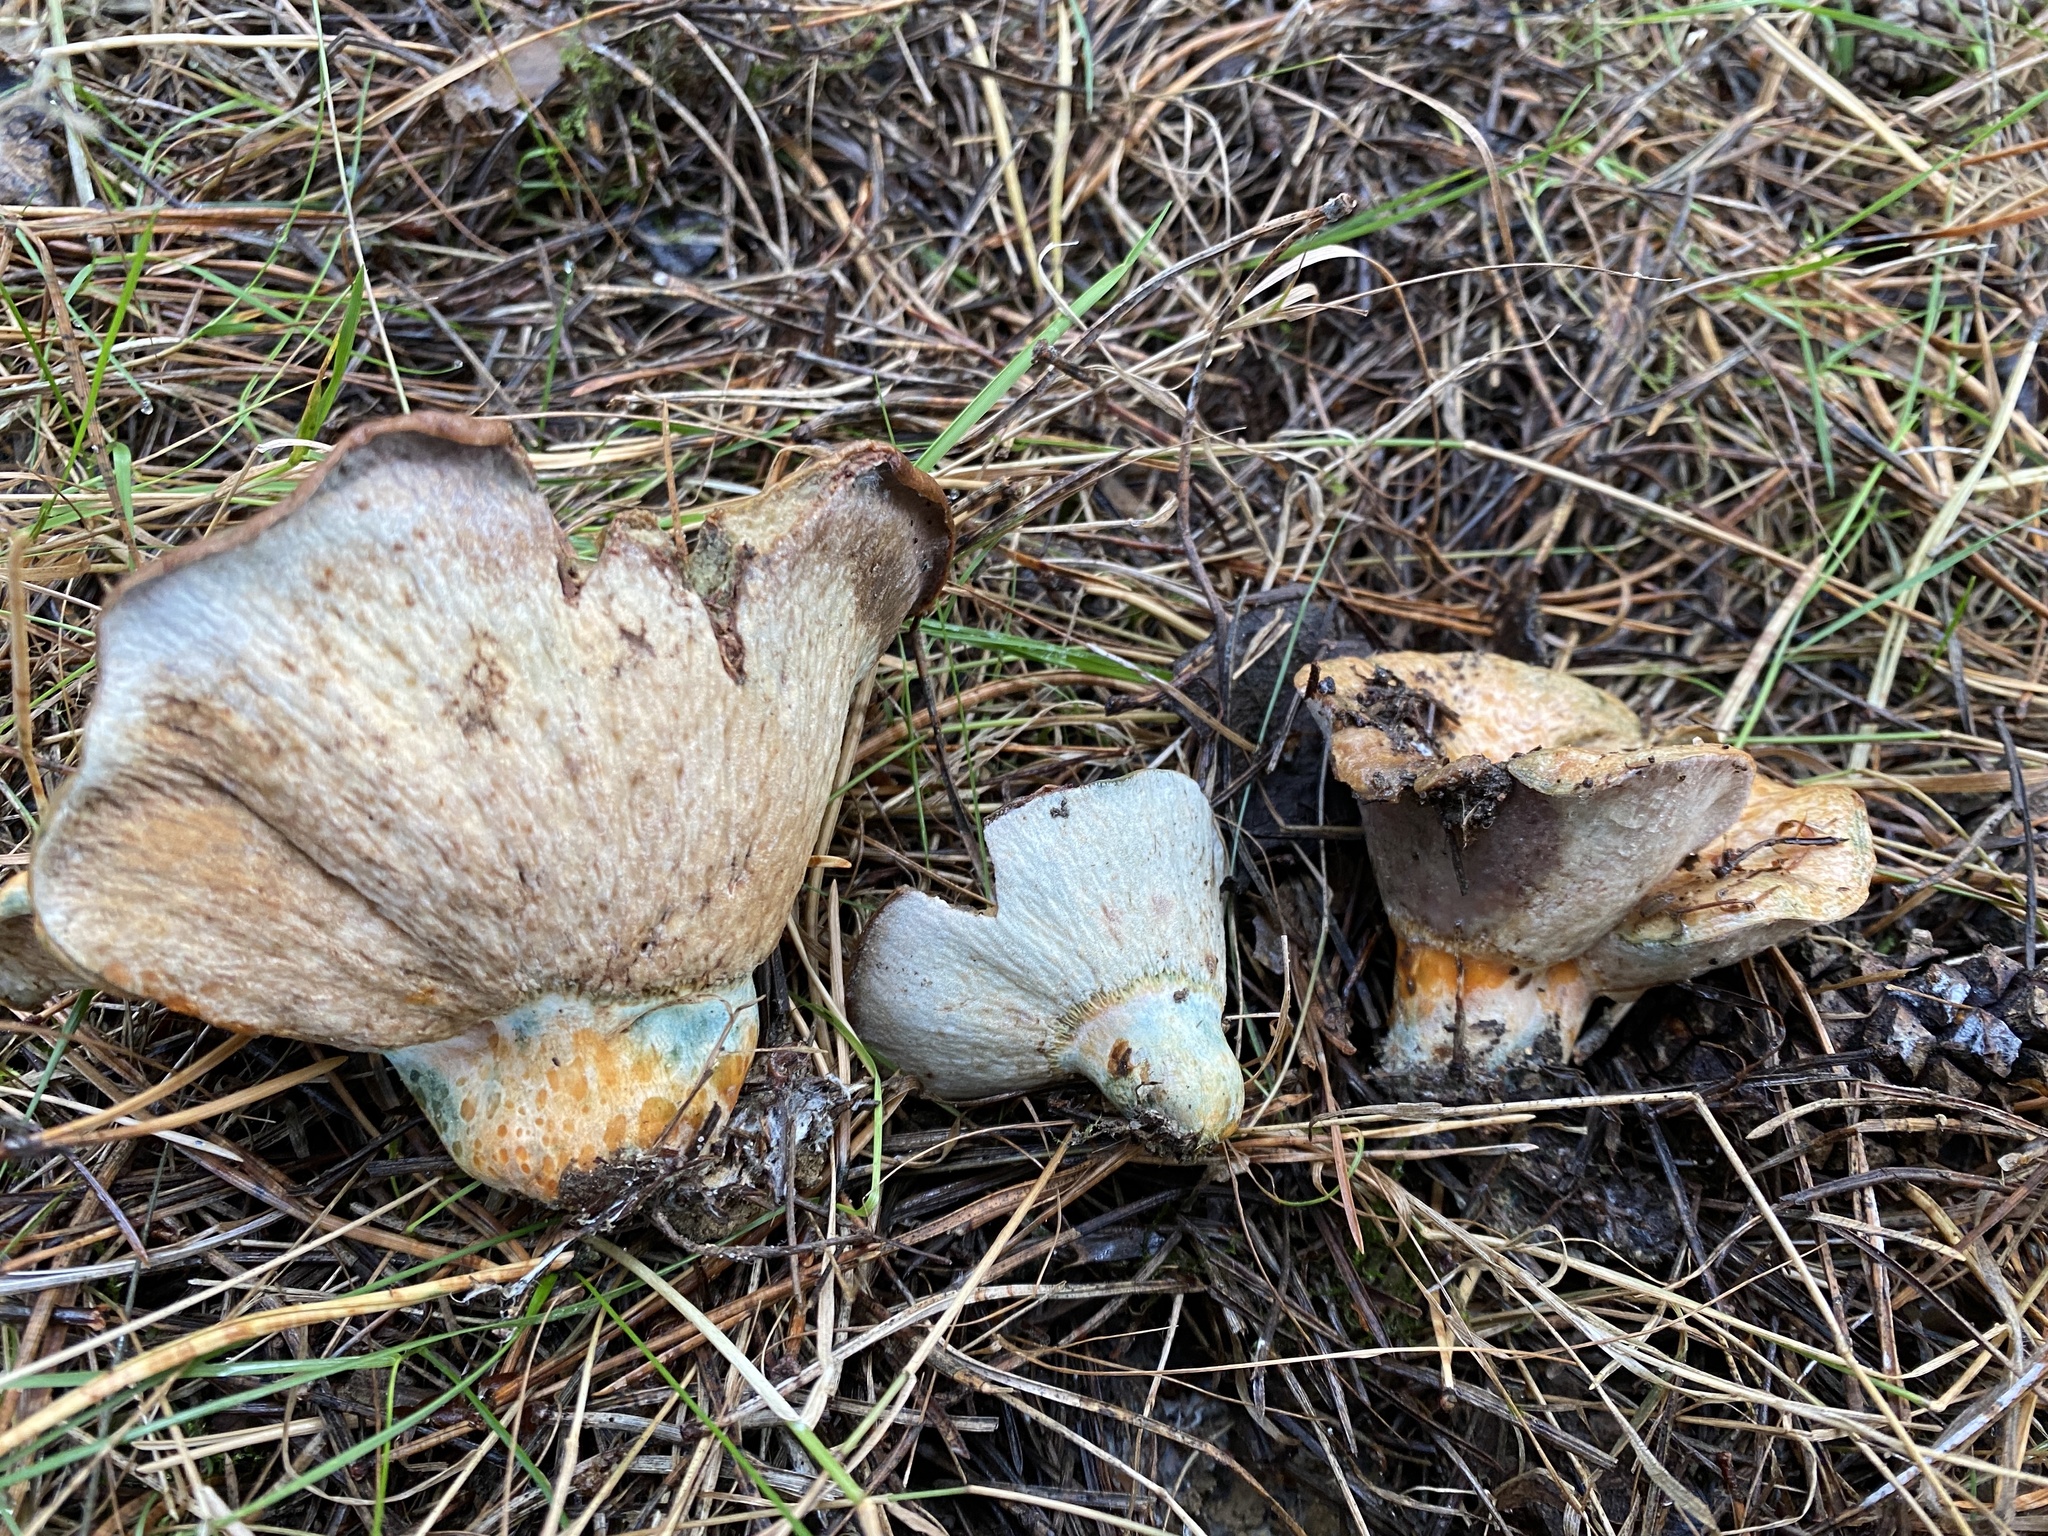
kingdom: Fungi
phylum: Ascomycota
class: Sordariomycetes
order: Hypocreales
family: Hypocreaceae
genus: Hypomyces
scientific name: Hypomyces lateritius
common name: Ochre gillgobbler
